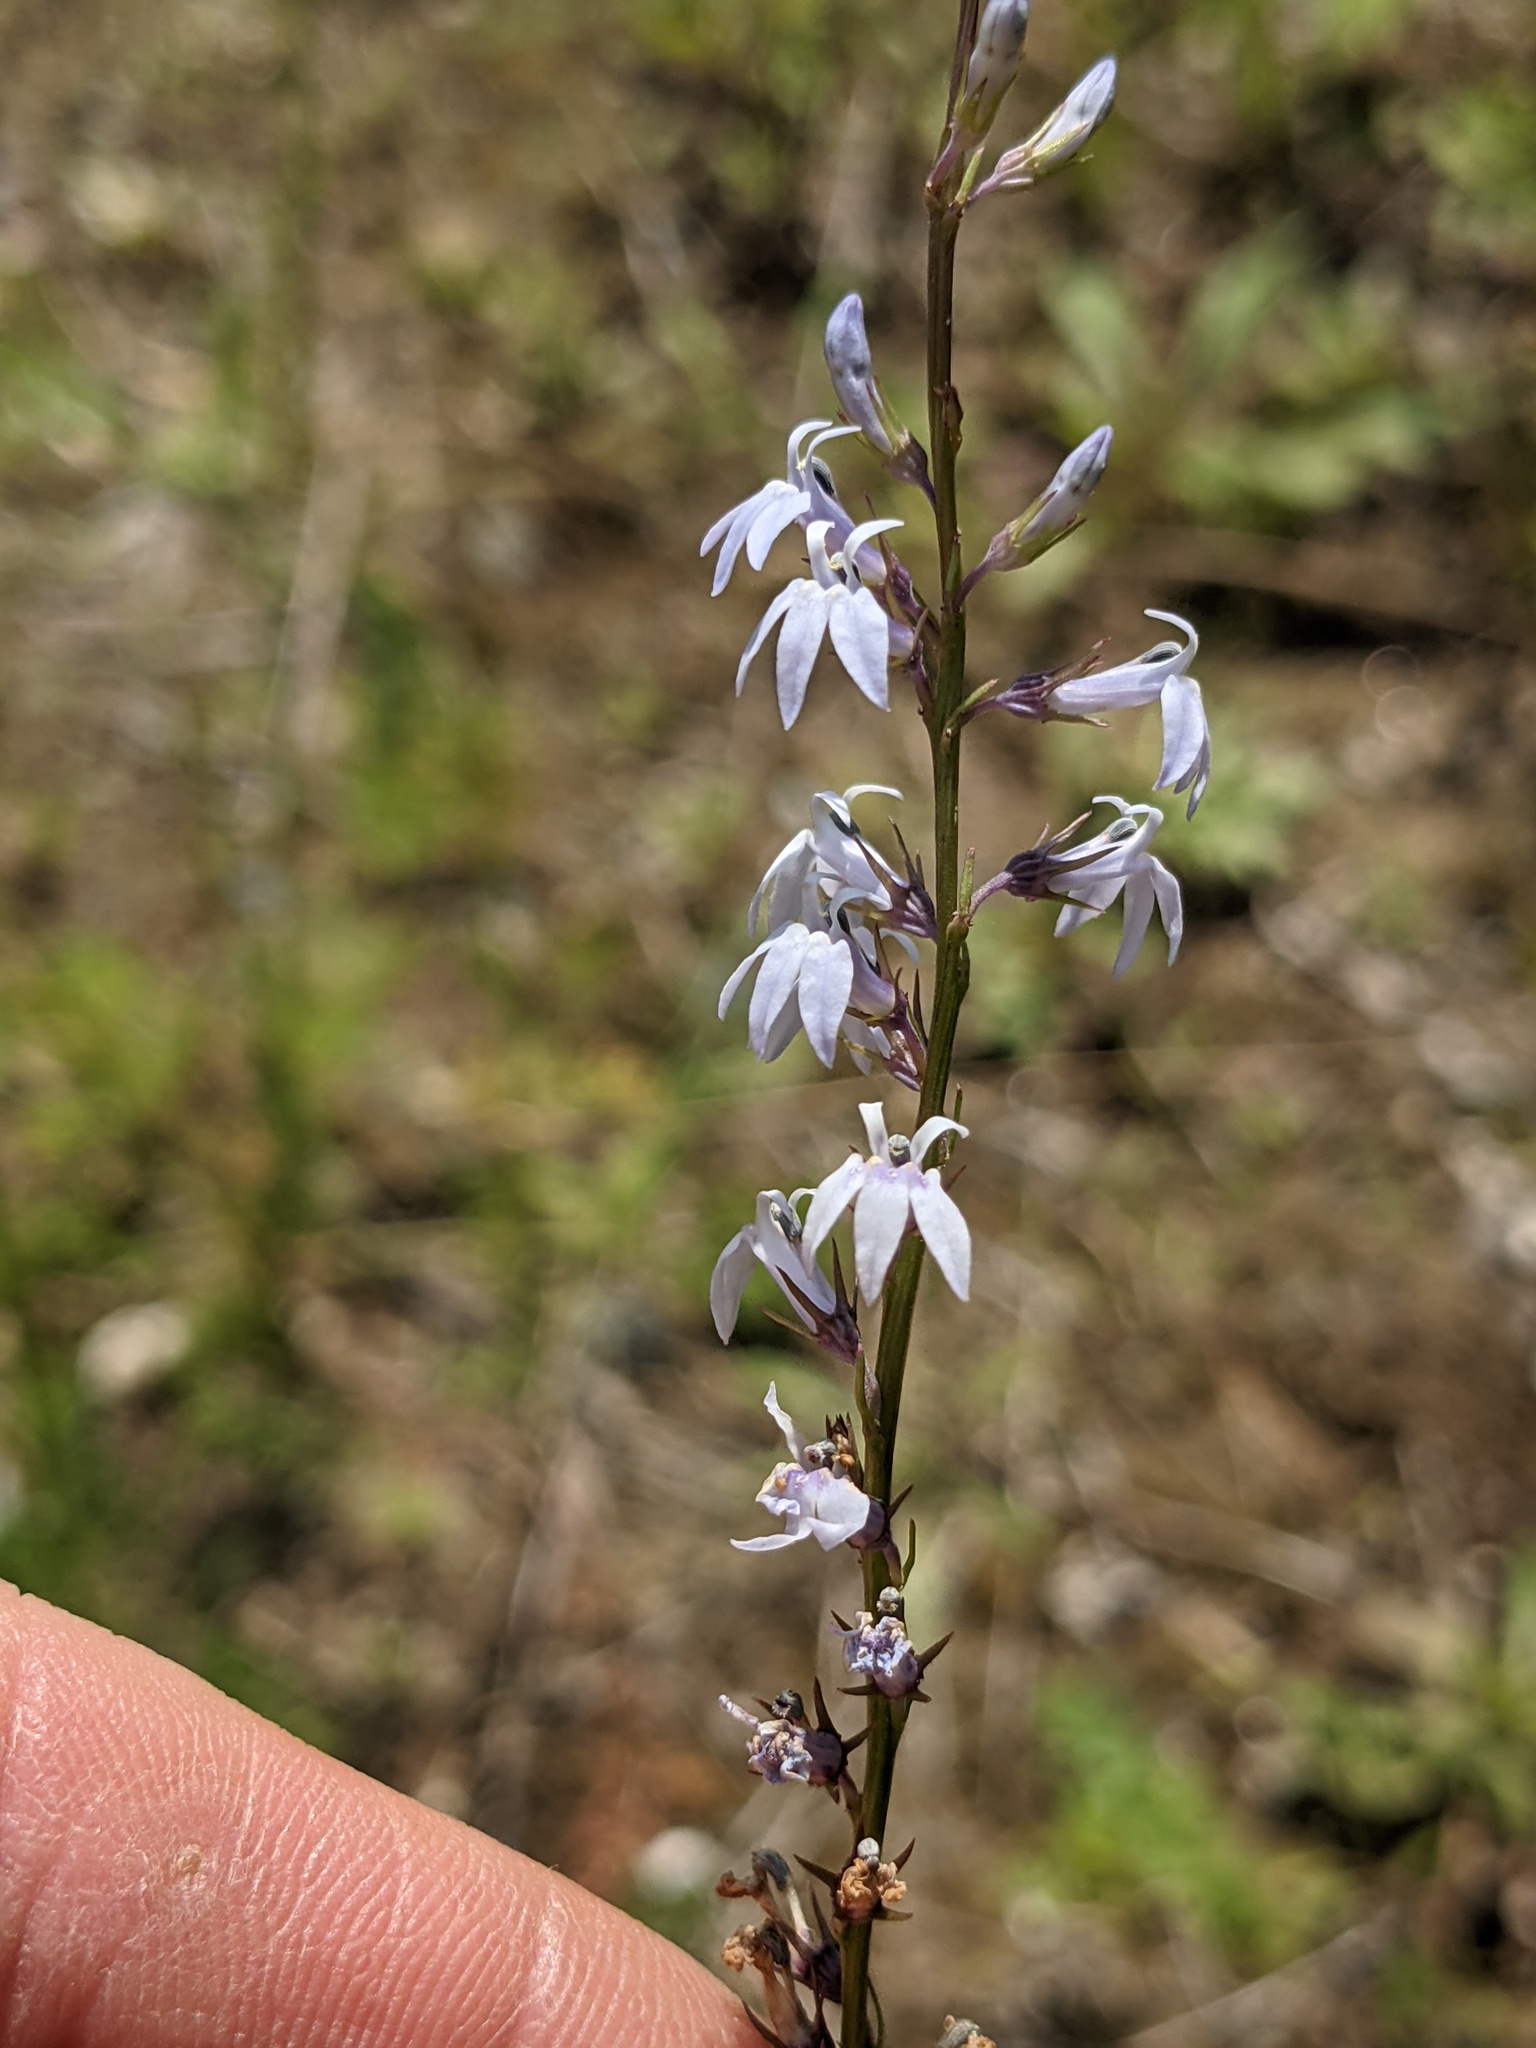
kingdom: Plantae
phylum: Tracheophyta
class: Magnoliopsida
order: Asterales
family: Campanulaceae
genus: Lobelia
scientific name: Lobelia spicata
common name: Pale-spike lobelia
